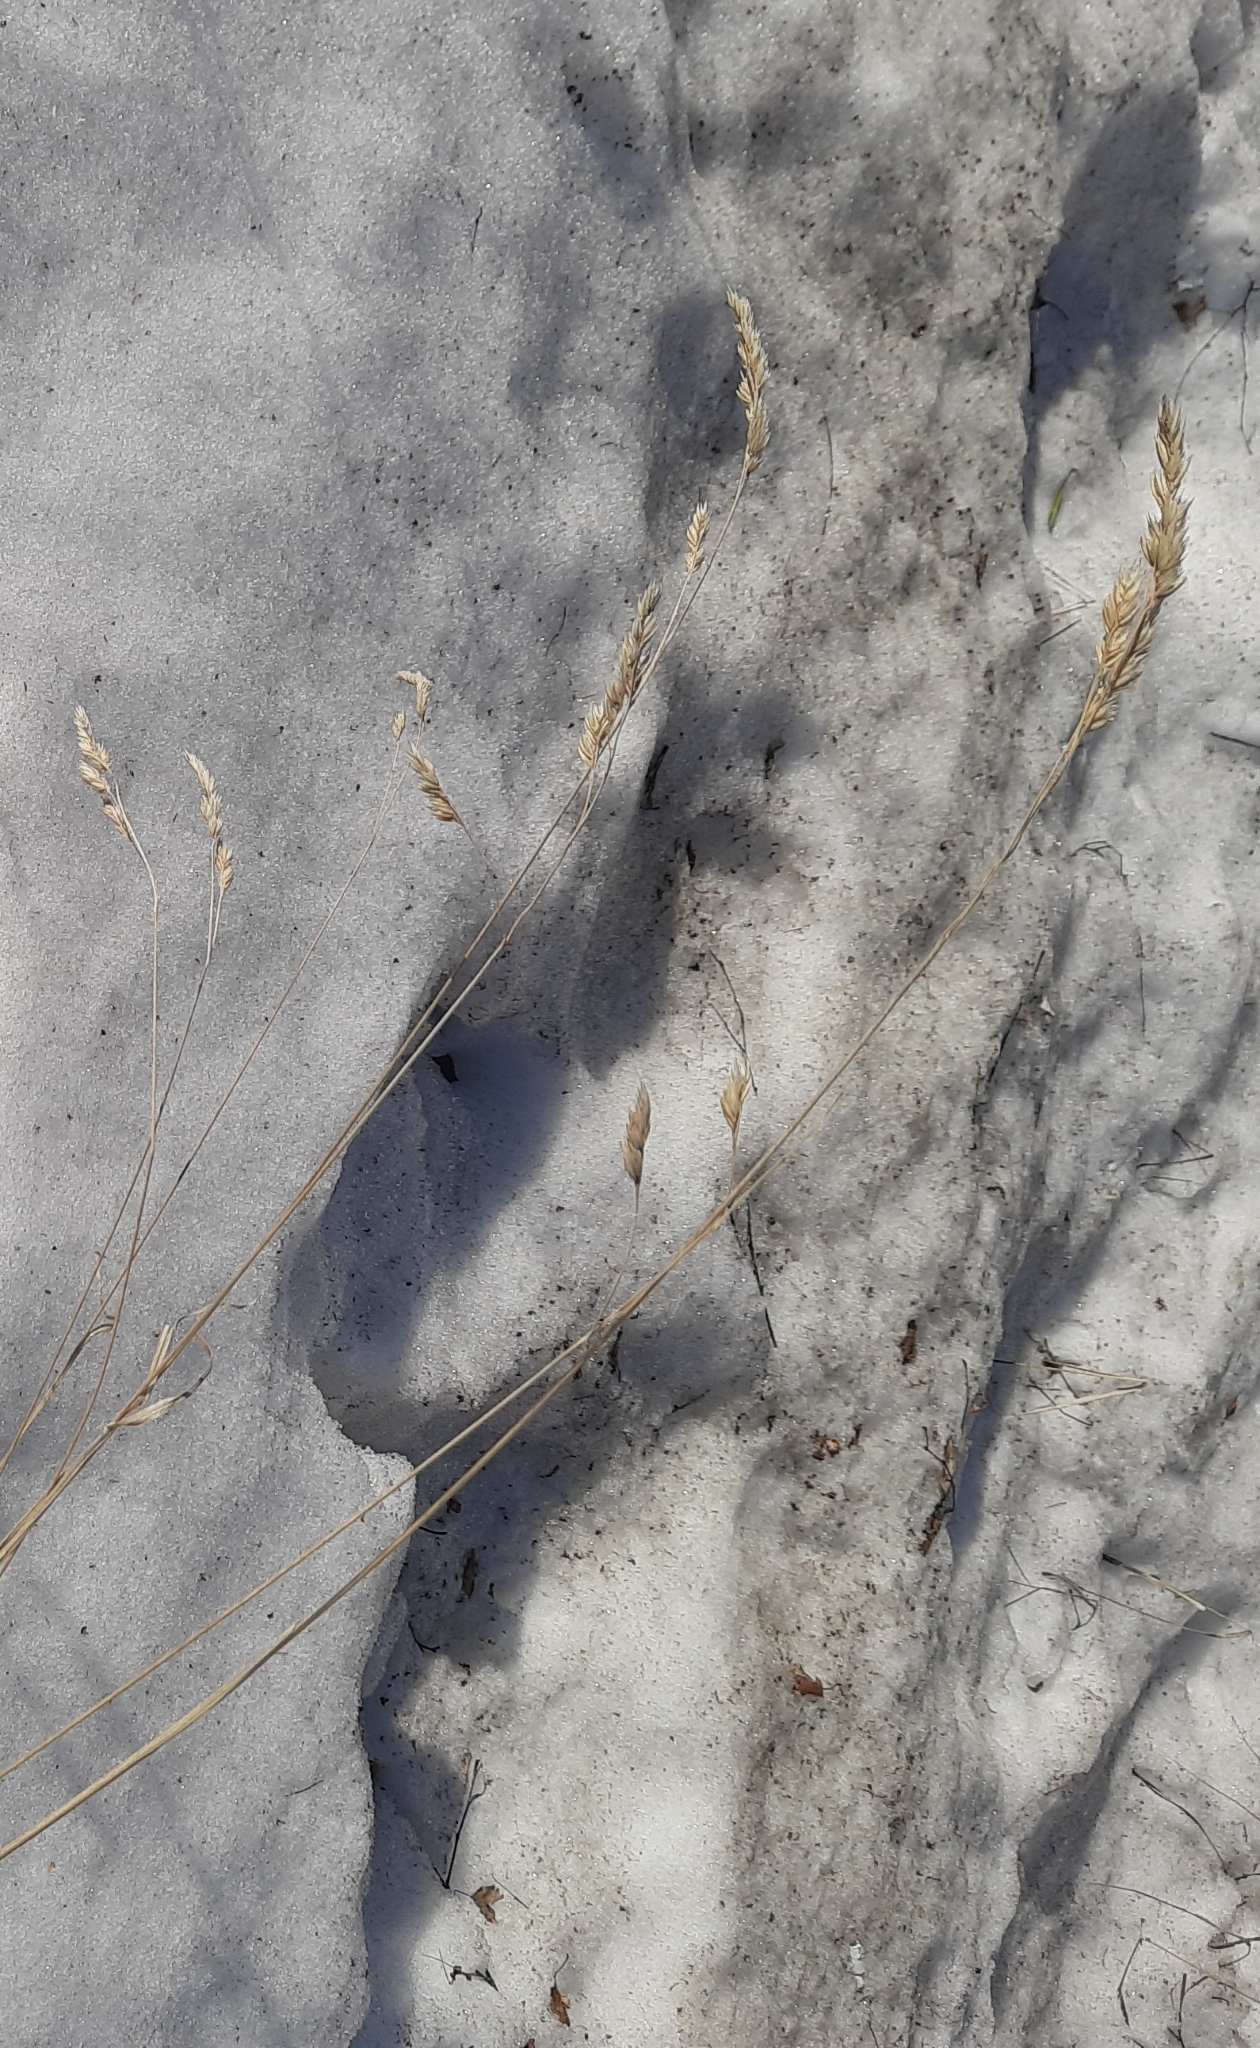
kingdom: Plantae
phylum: Tracheophyta
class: Liliopsida
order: Poales
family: Poaceae
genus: Dactylis
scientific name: Dactylis glomerata
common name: Orchardgrass
